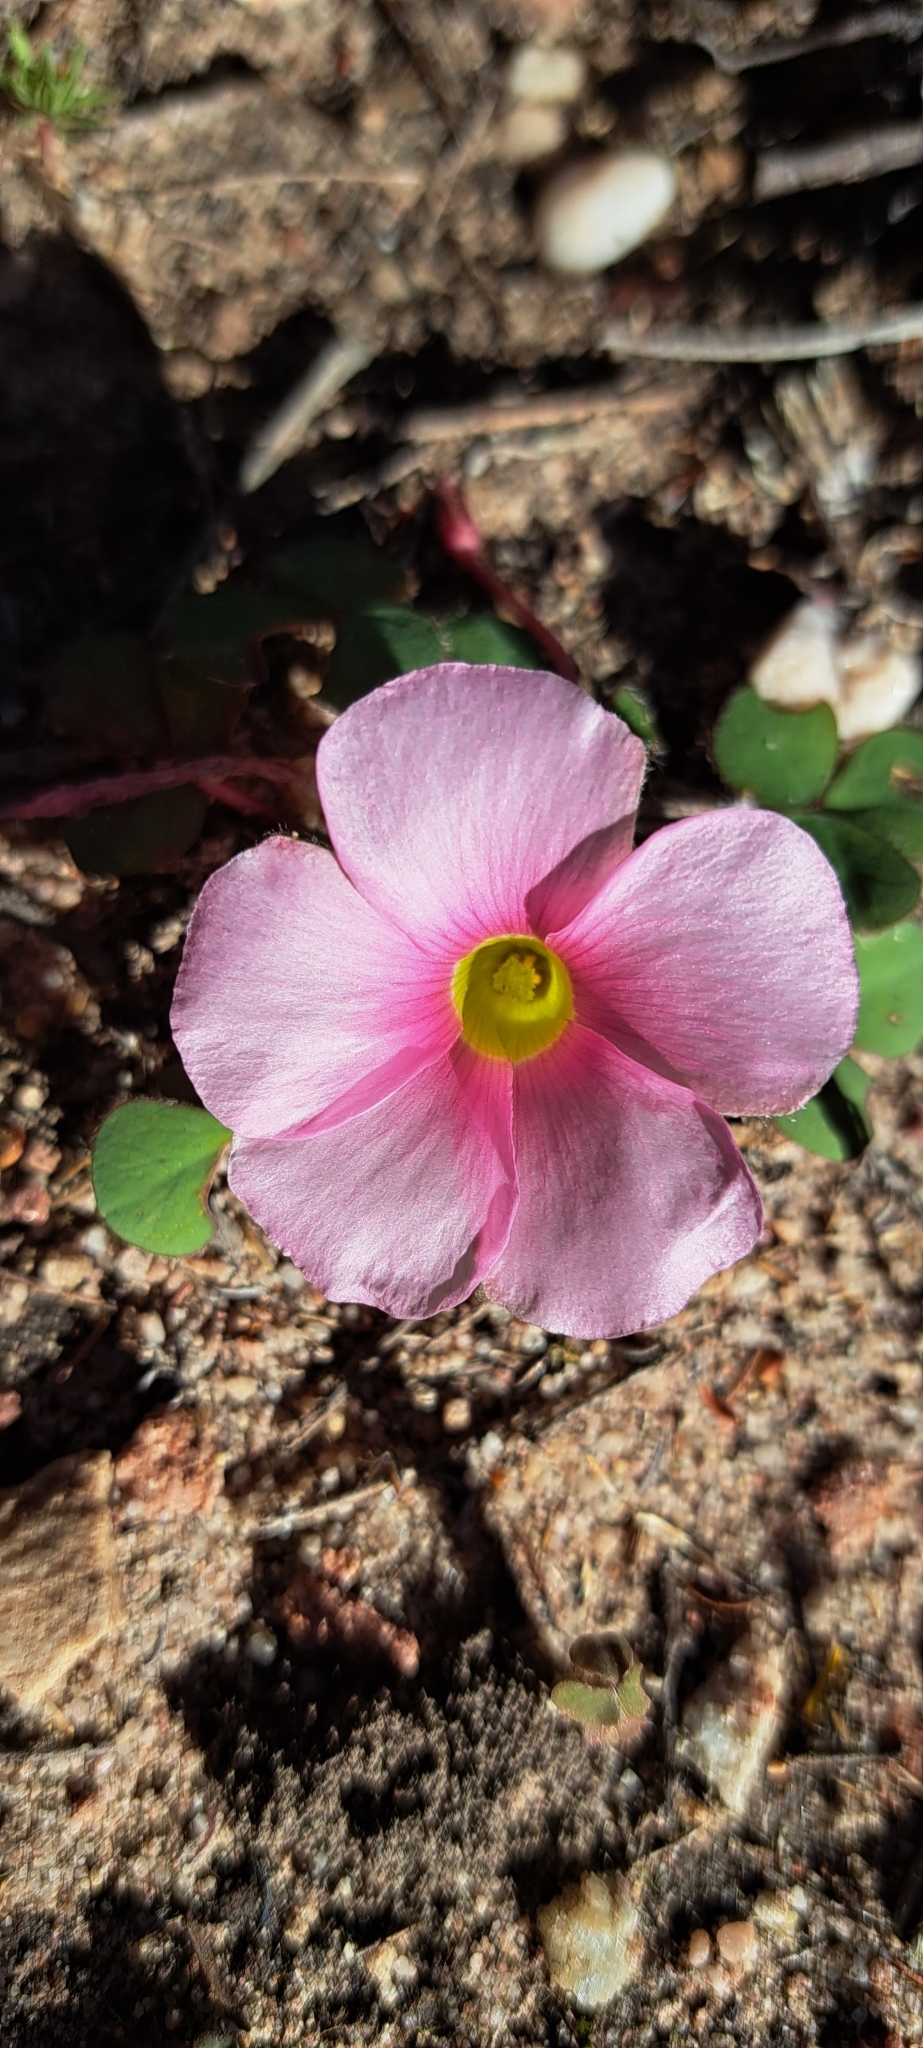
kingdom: Plantae
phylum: Tracheophyta
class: Magnoliopsida
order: Oxalidales
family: Oxalidaceae
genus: Oxalis
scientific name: Oxalis purpurea
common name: Purple woodsorrel
